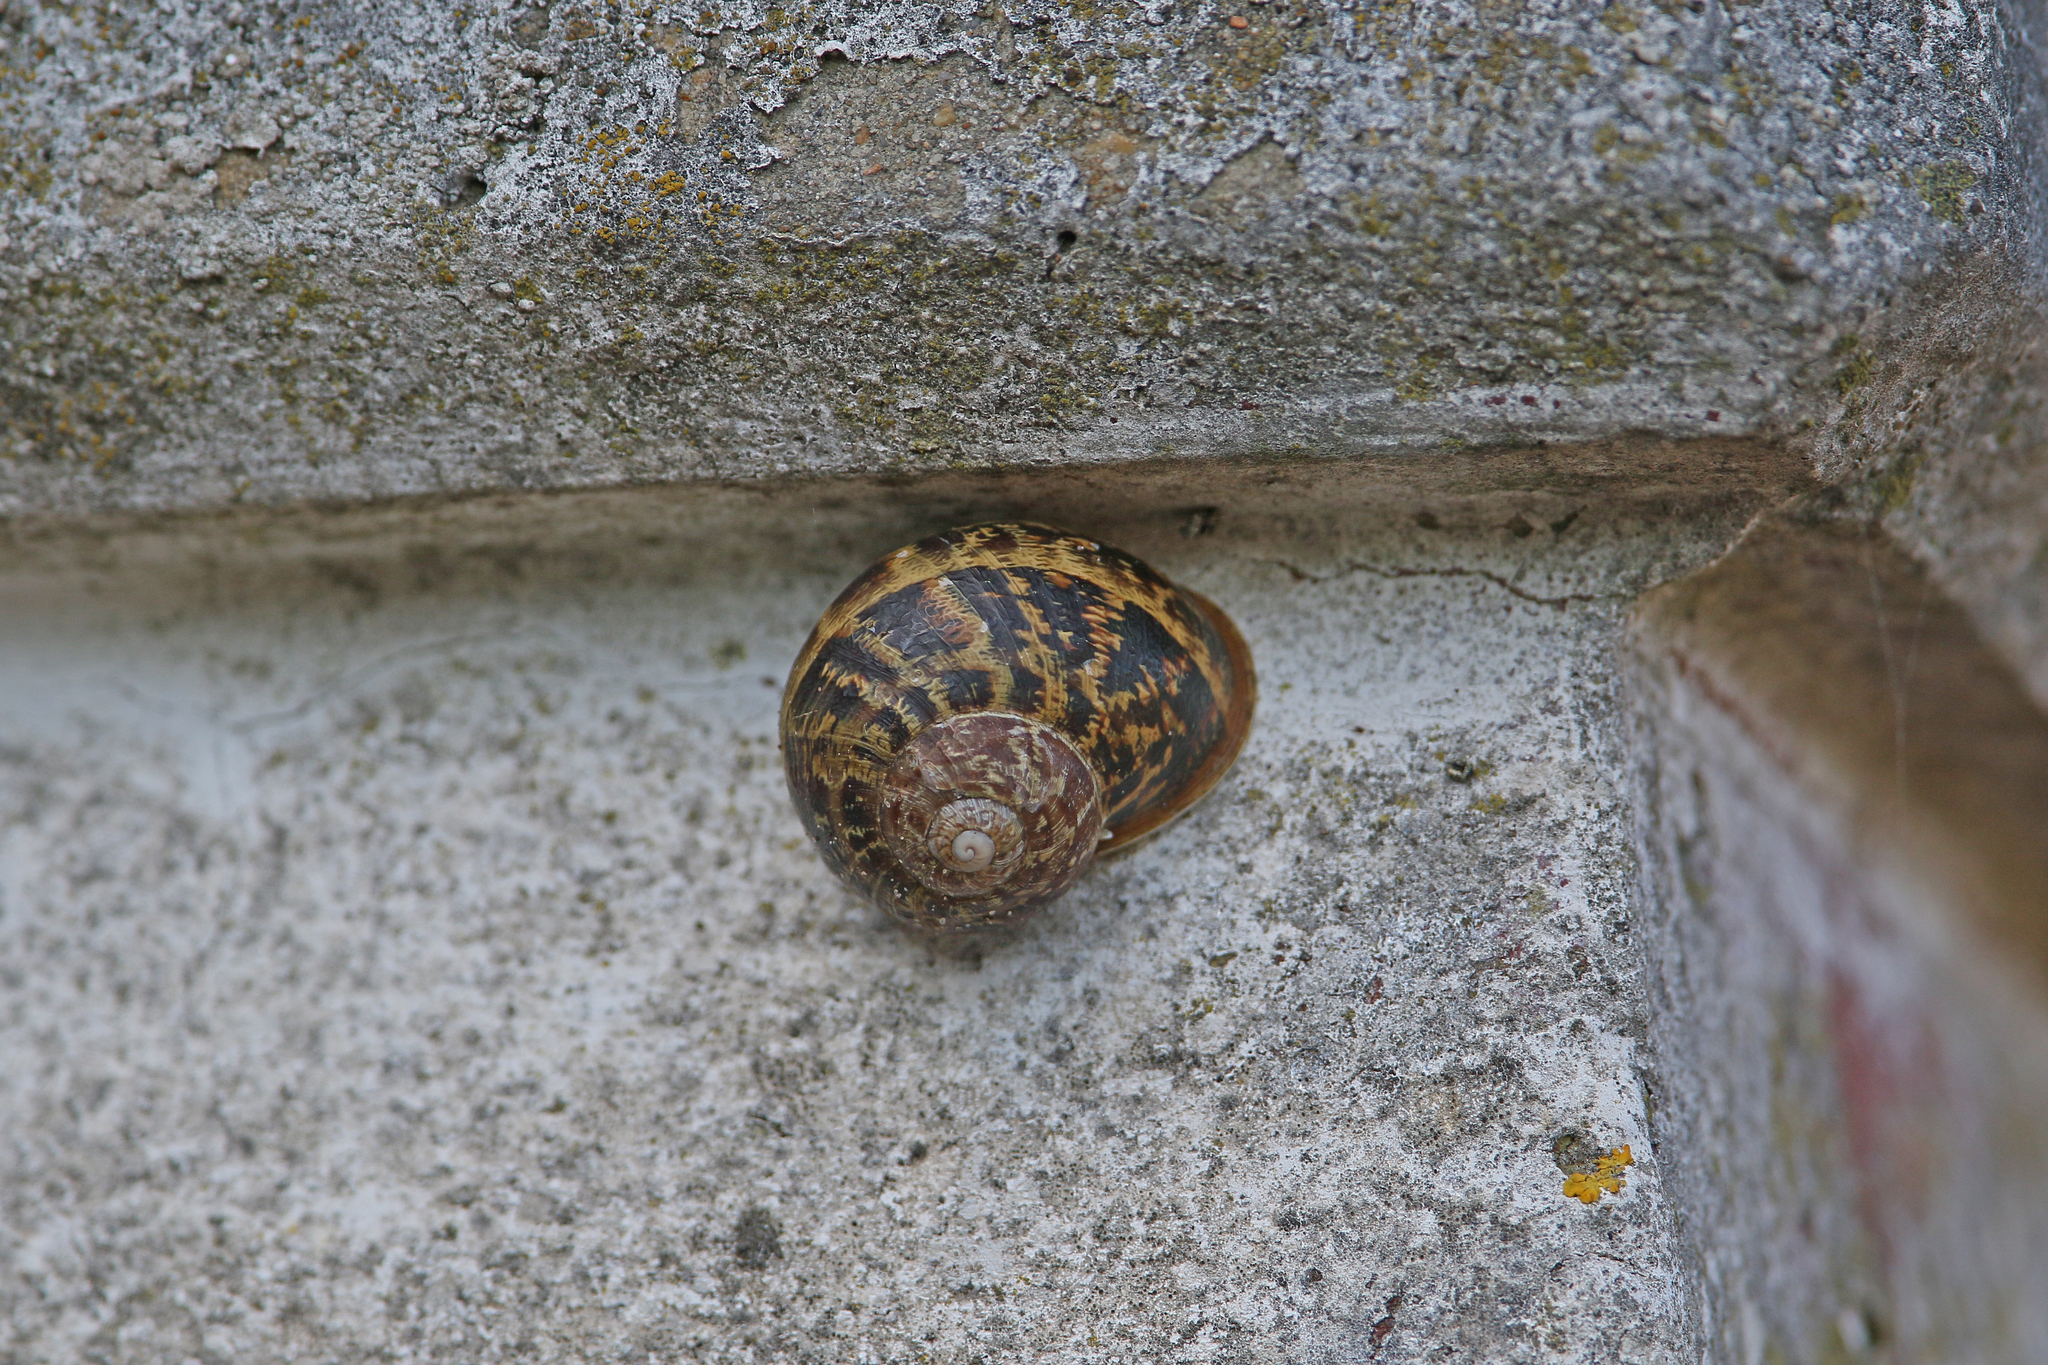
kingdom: Animalia
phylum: Mollusca
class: Gastropoda
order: Stylommatophora
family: Helicidae
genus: Cornu
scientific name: Cornu aspersum
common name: Brown garden snail
